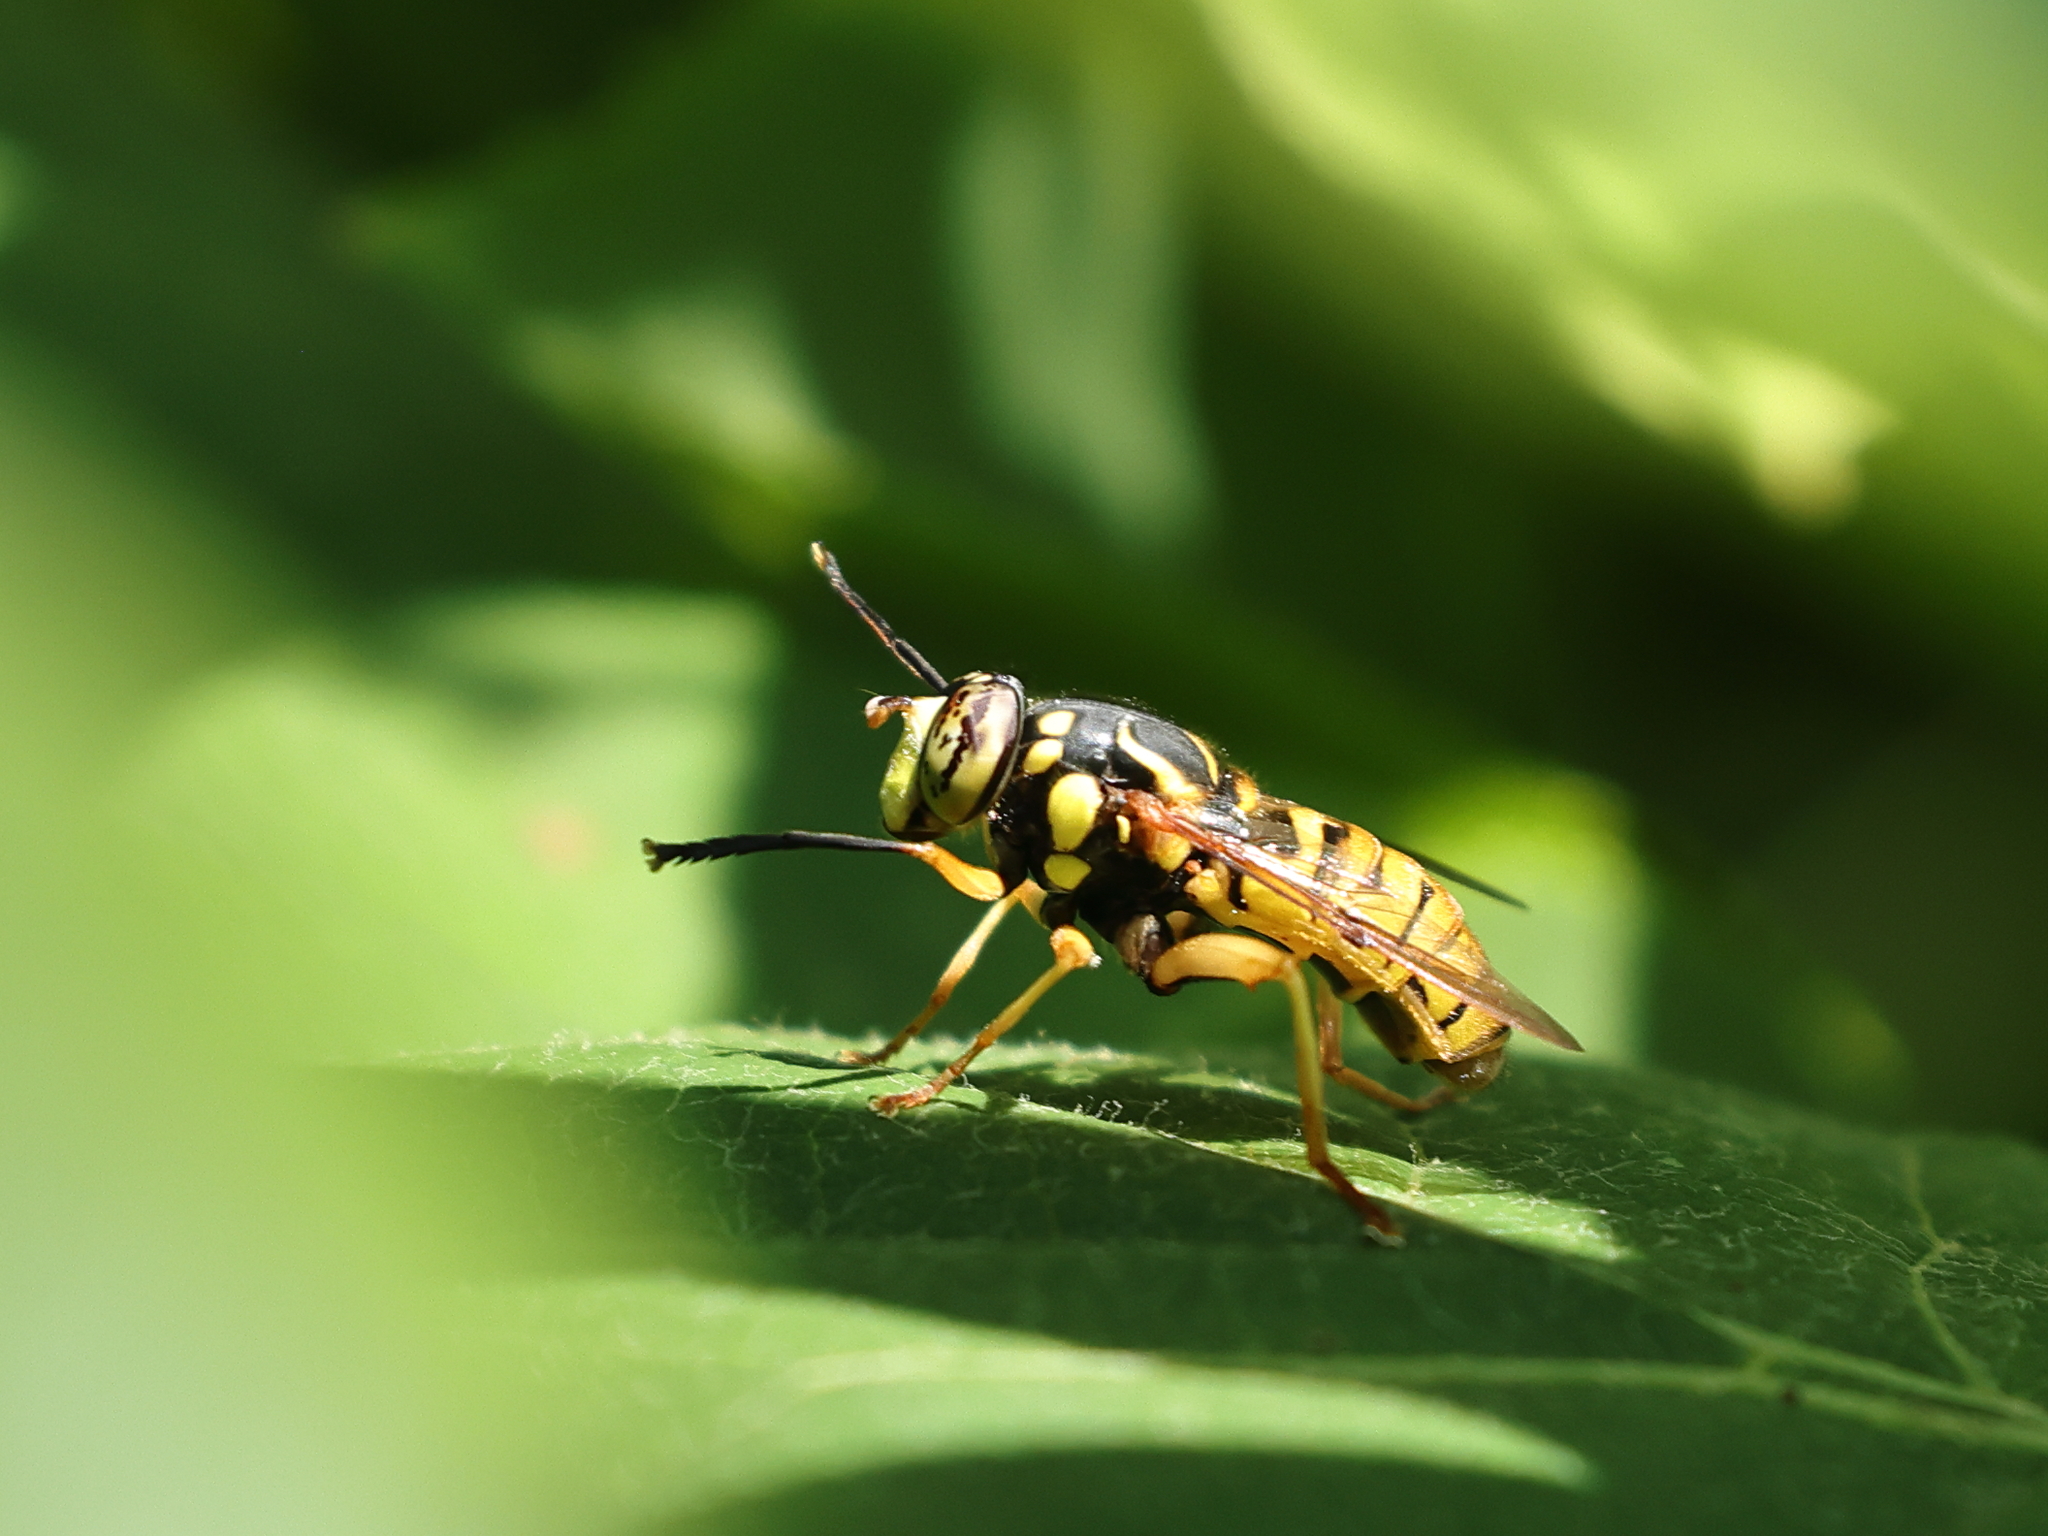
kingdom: Animalia
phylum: Arthropoda
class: Insecta
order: Diptera
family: Syrphidae
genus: Spilomyia
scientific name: Spilomyia alcimus
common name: Broad-banded hornet fly
